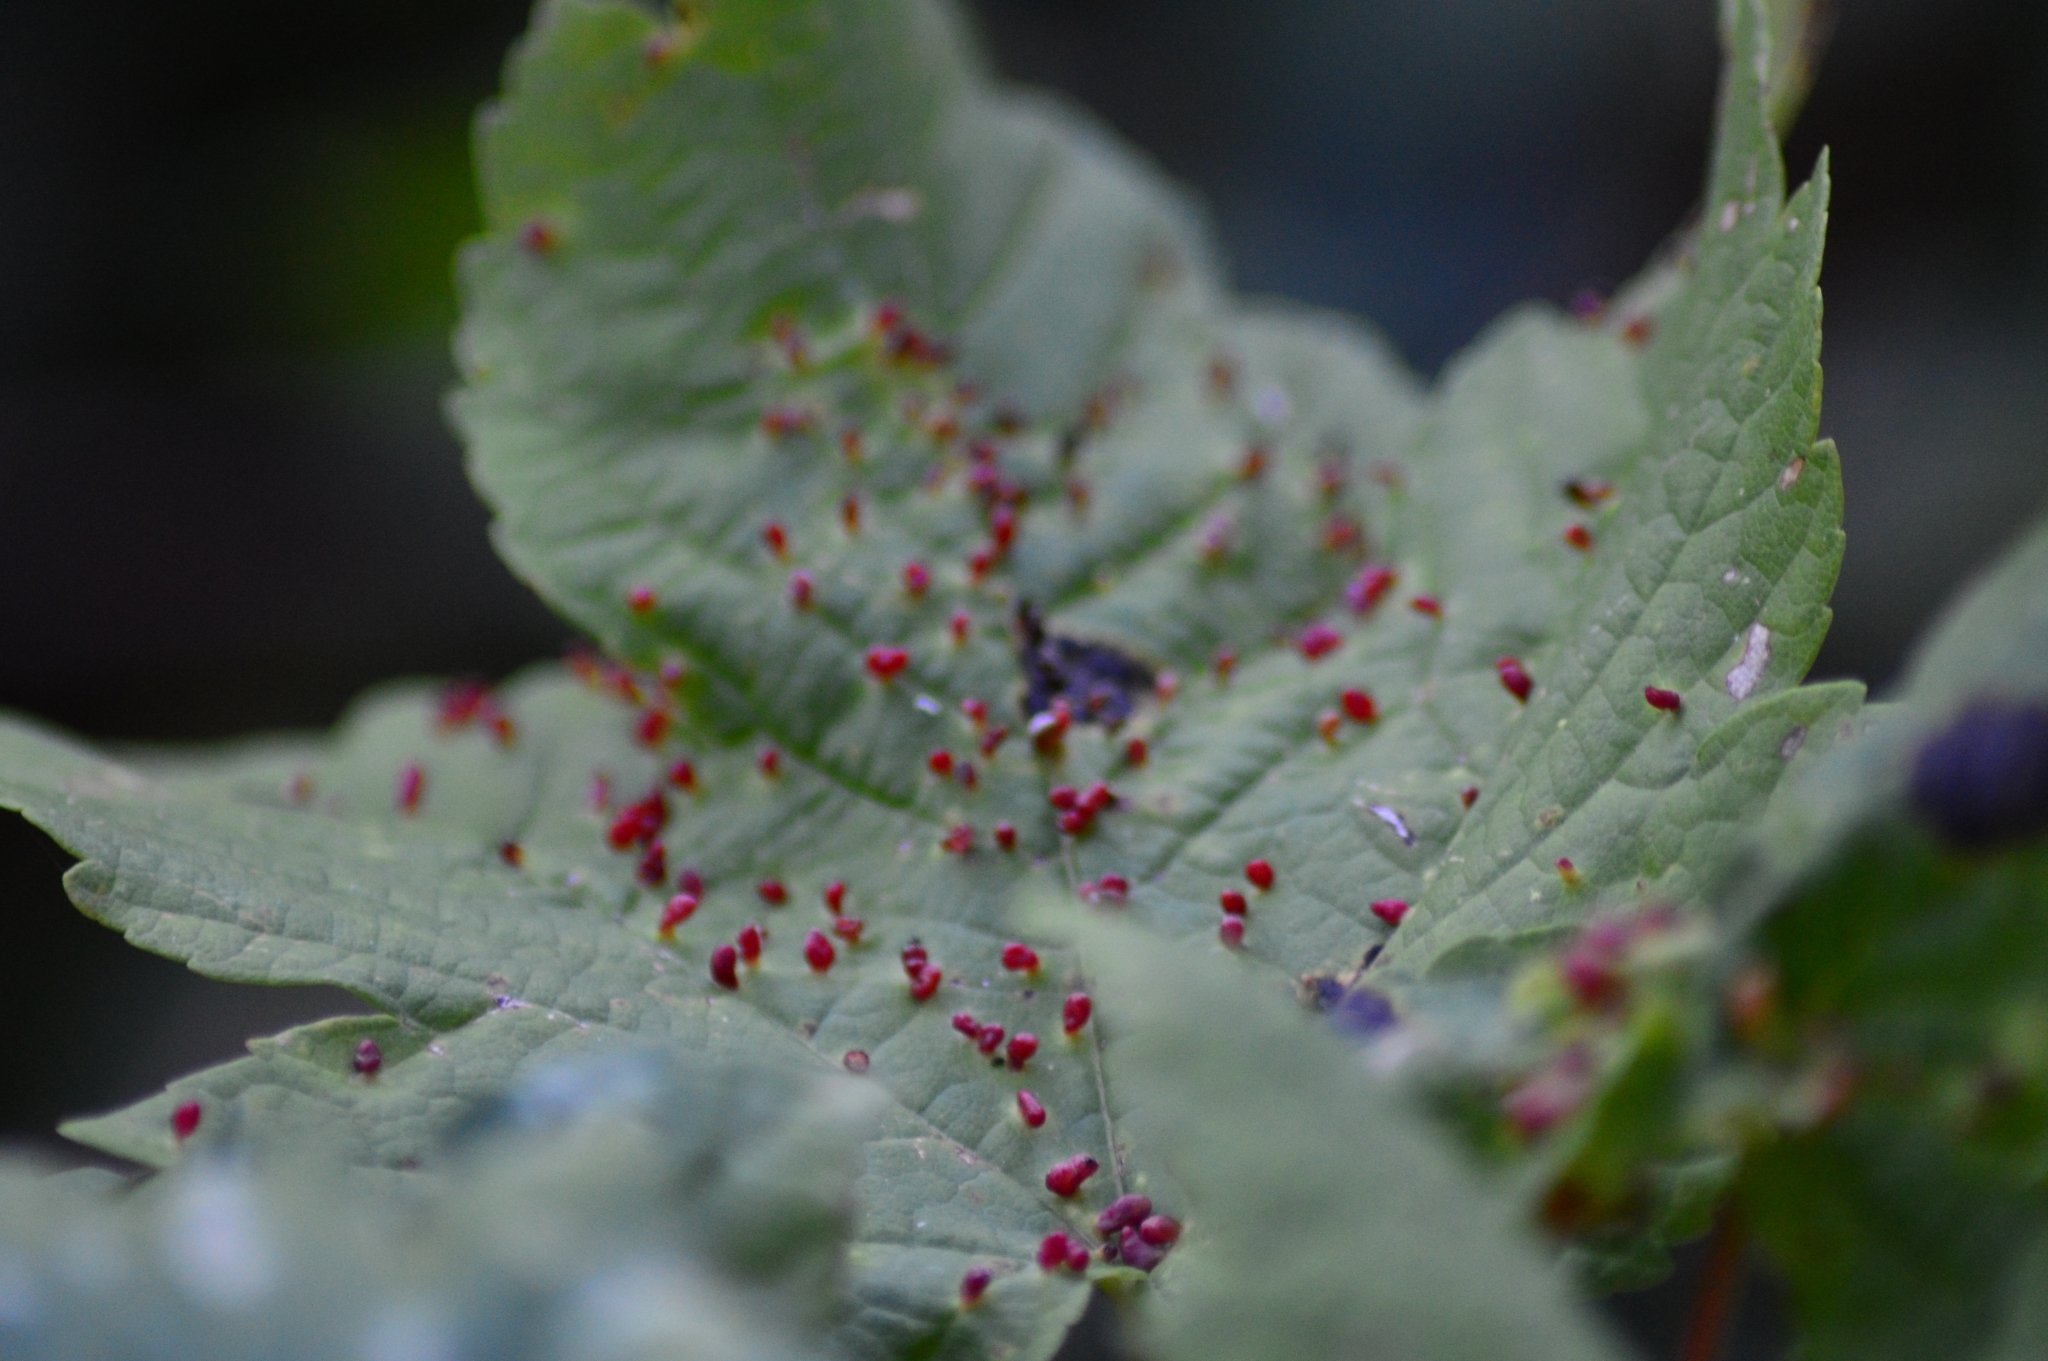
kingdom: Animalia
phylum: Arthropoda
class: Arachnida
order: Trombidiformes
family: Eriophyidae
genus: Aceria
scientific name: Aceria cephaloneus
